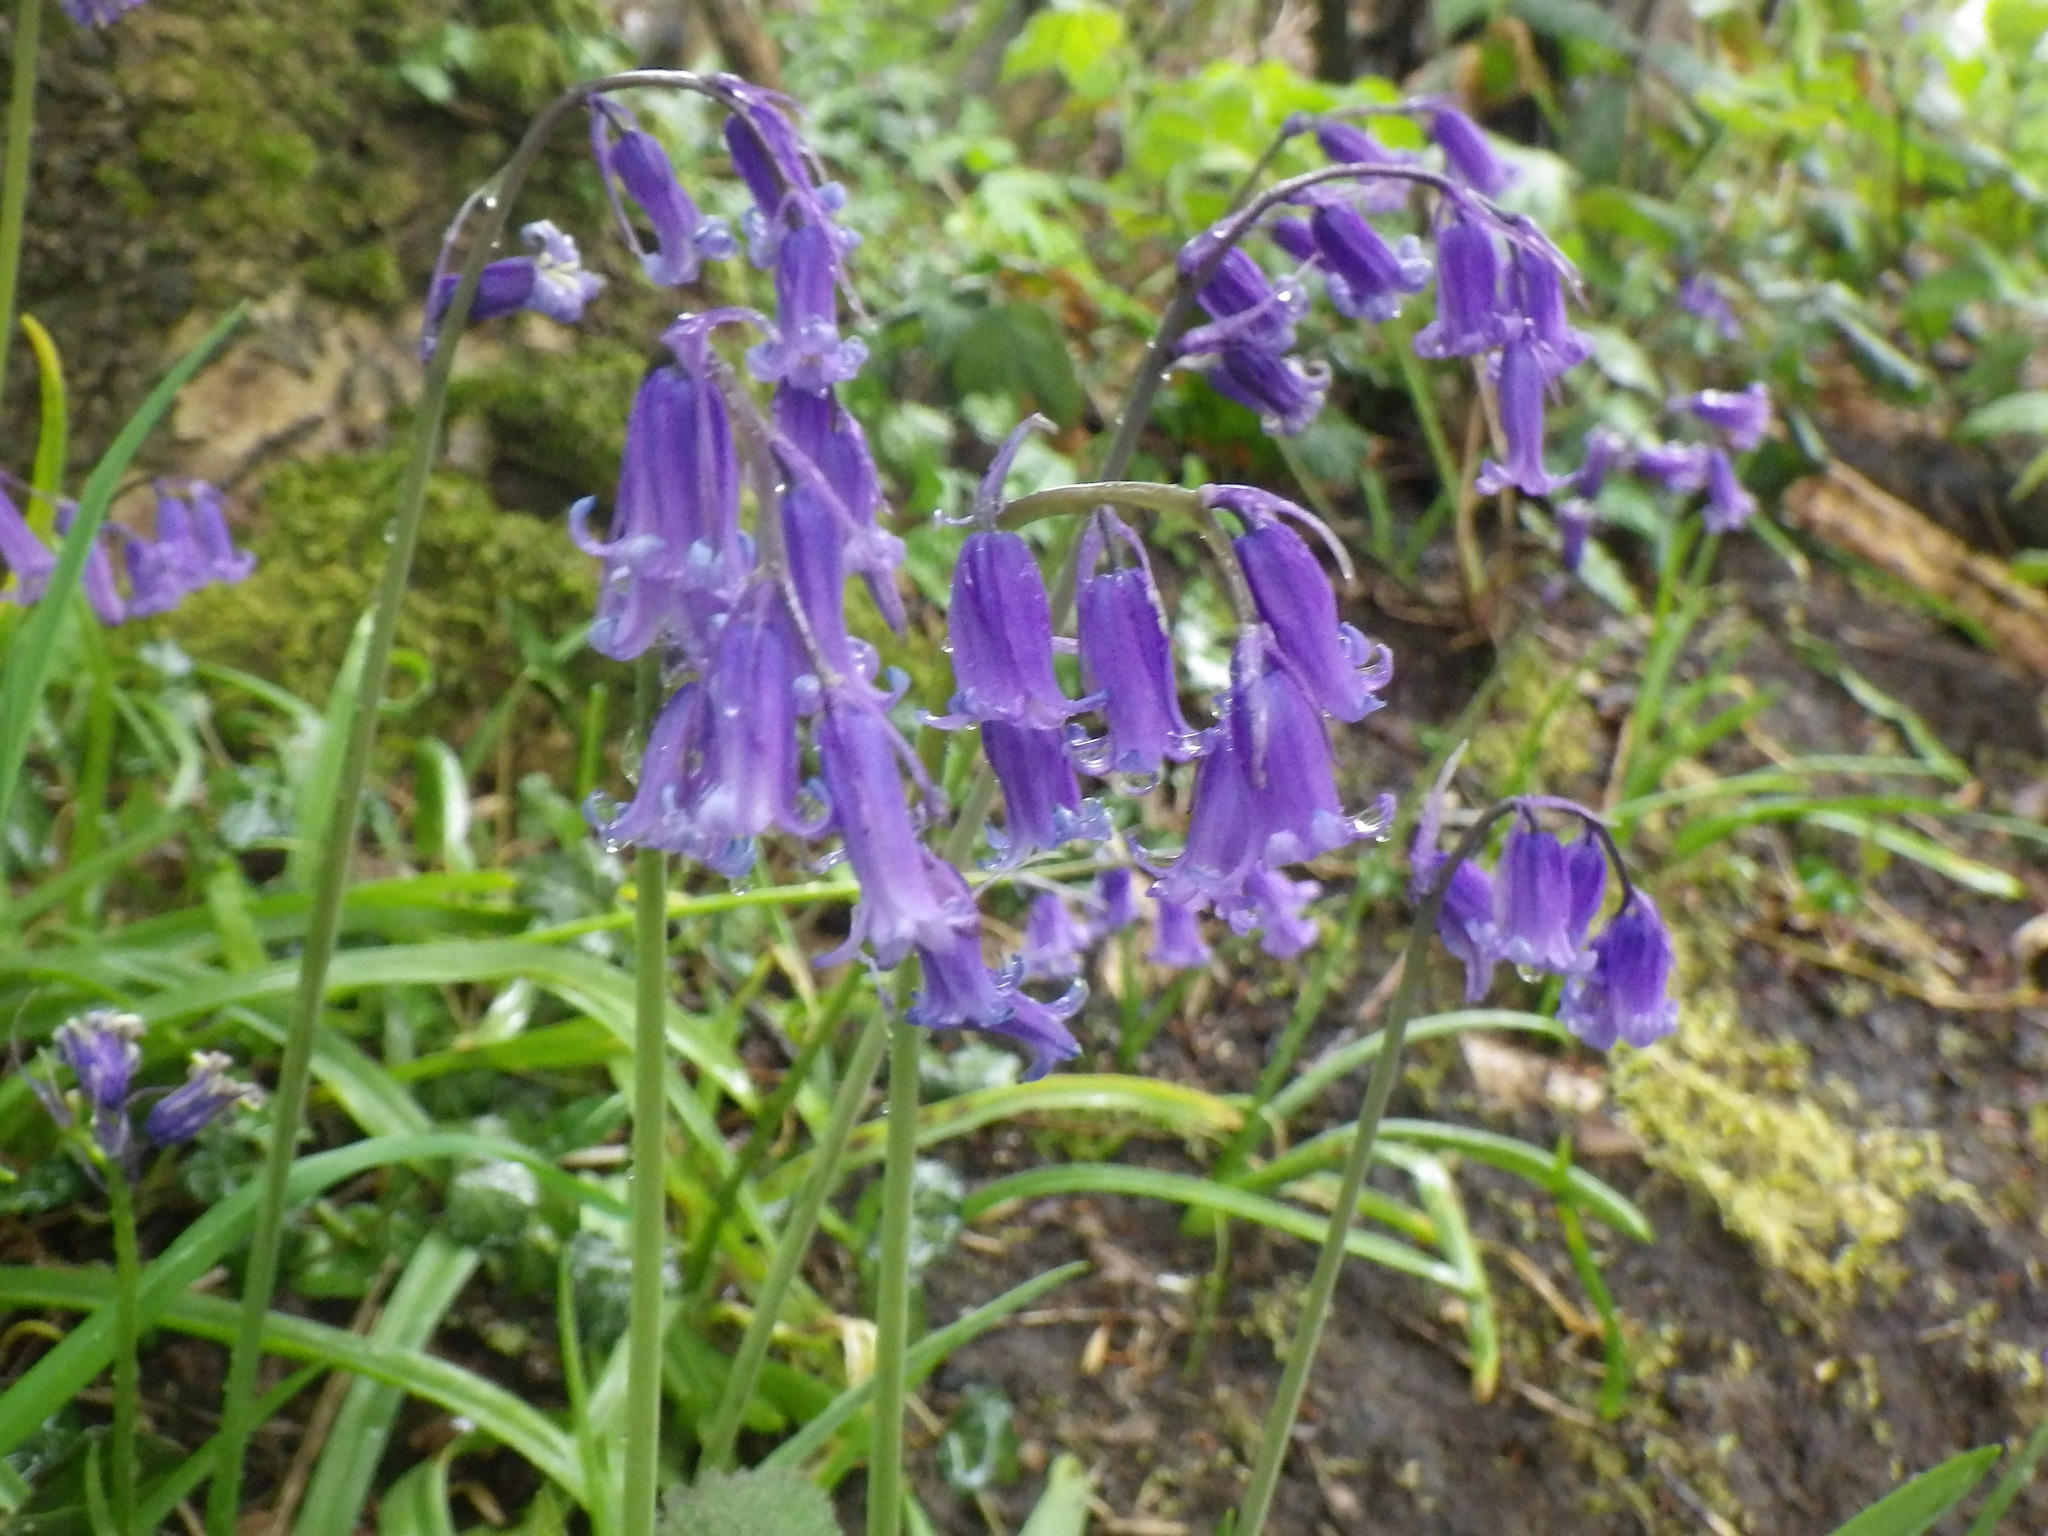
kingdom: Plantae
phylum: Tracheophyta
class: Liliopsida
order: Asparagales
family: Asparagaceae
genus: Hyacinthoides
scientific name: Hyacinthoides non-scripta
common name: Bluebell
